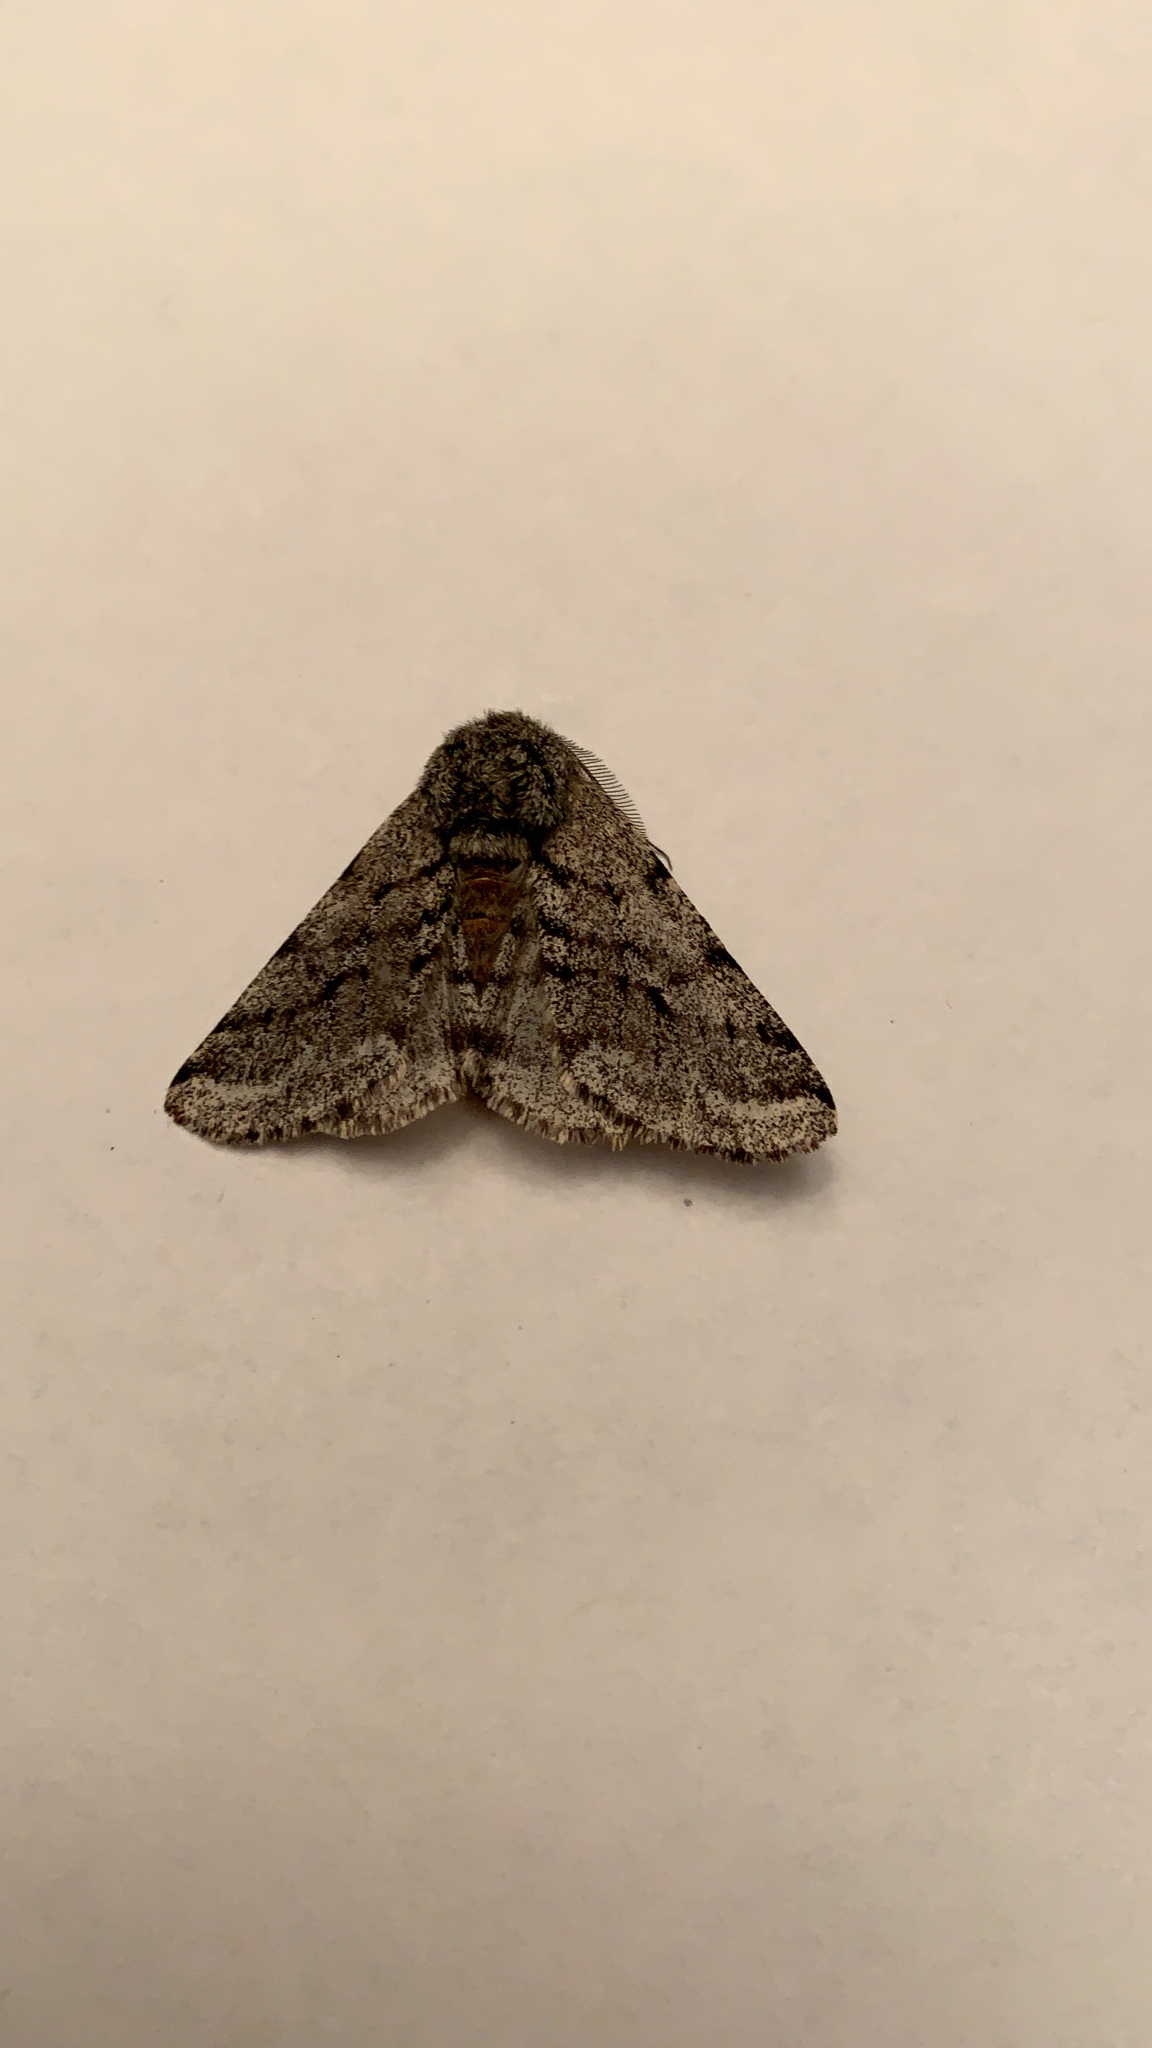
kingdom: Animalia
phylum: Arthropoda
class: Insecta
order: Lepidoptera
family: Geometridae
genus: Lycia
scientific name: Lycia ursaria
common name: Stout spanworm
